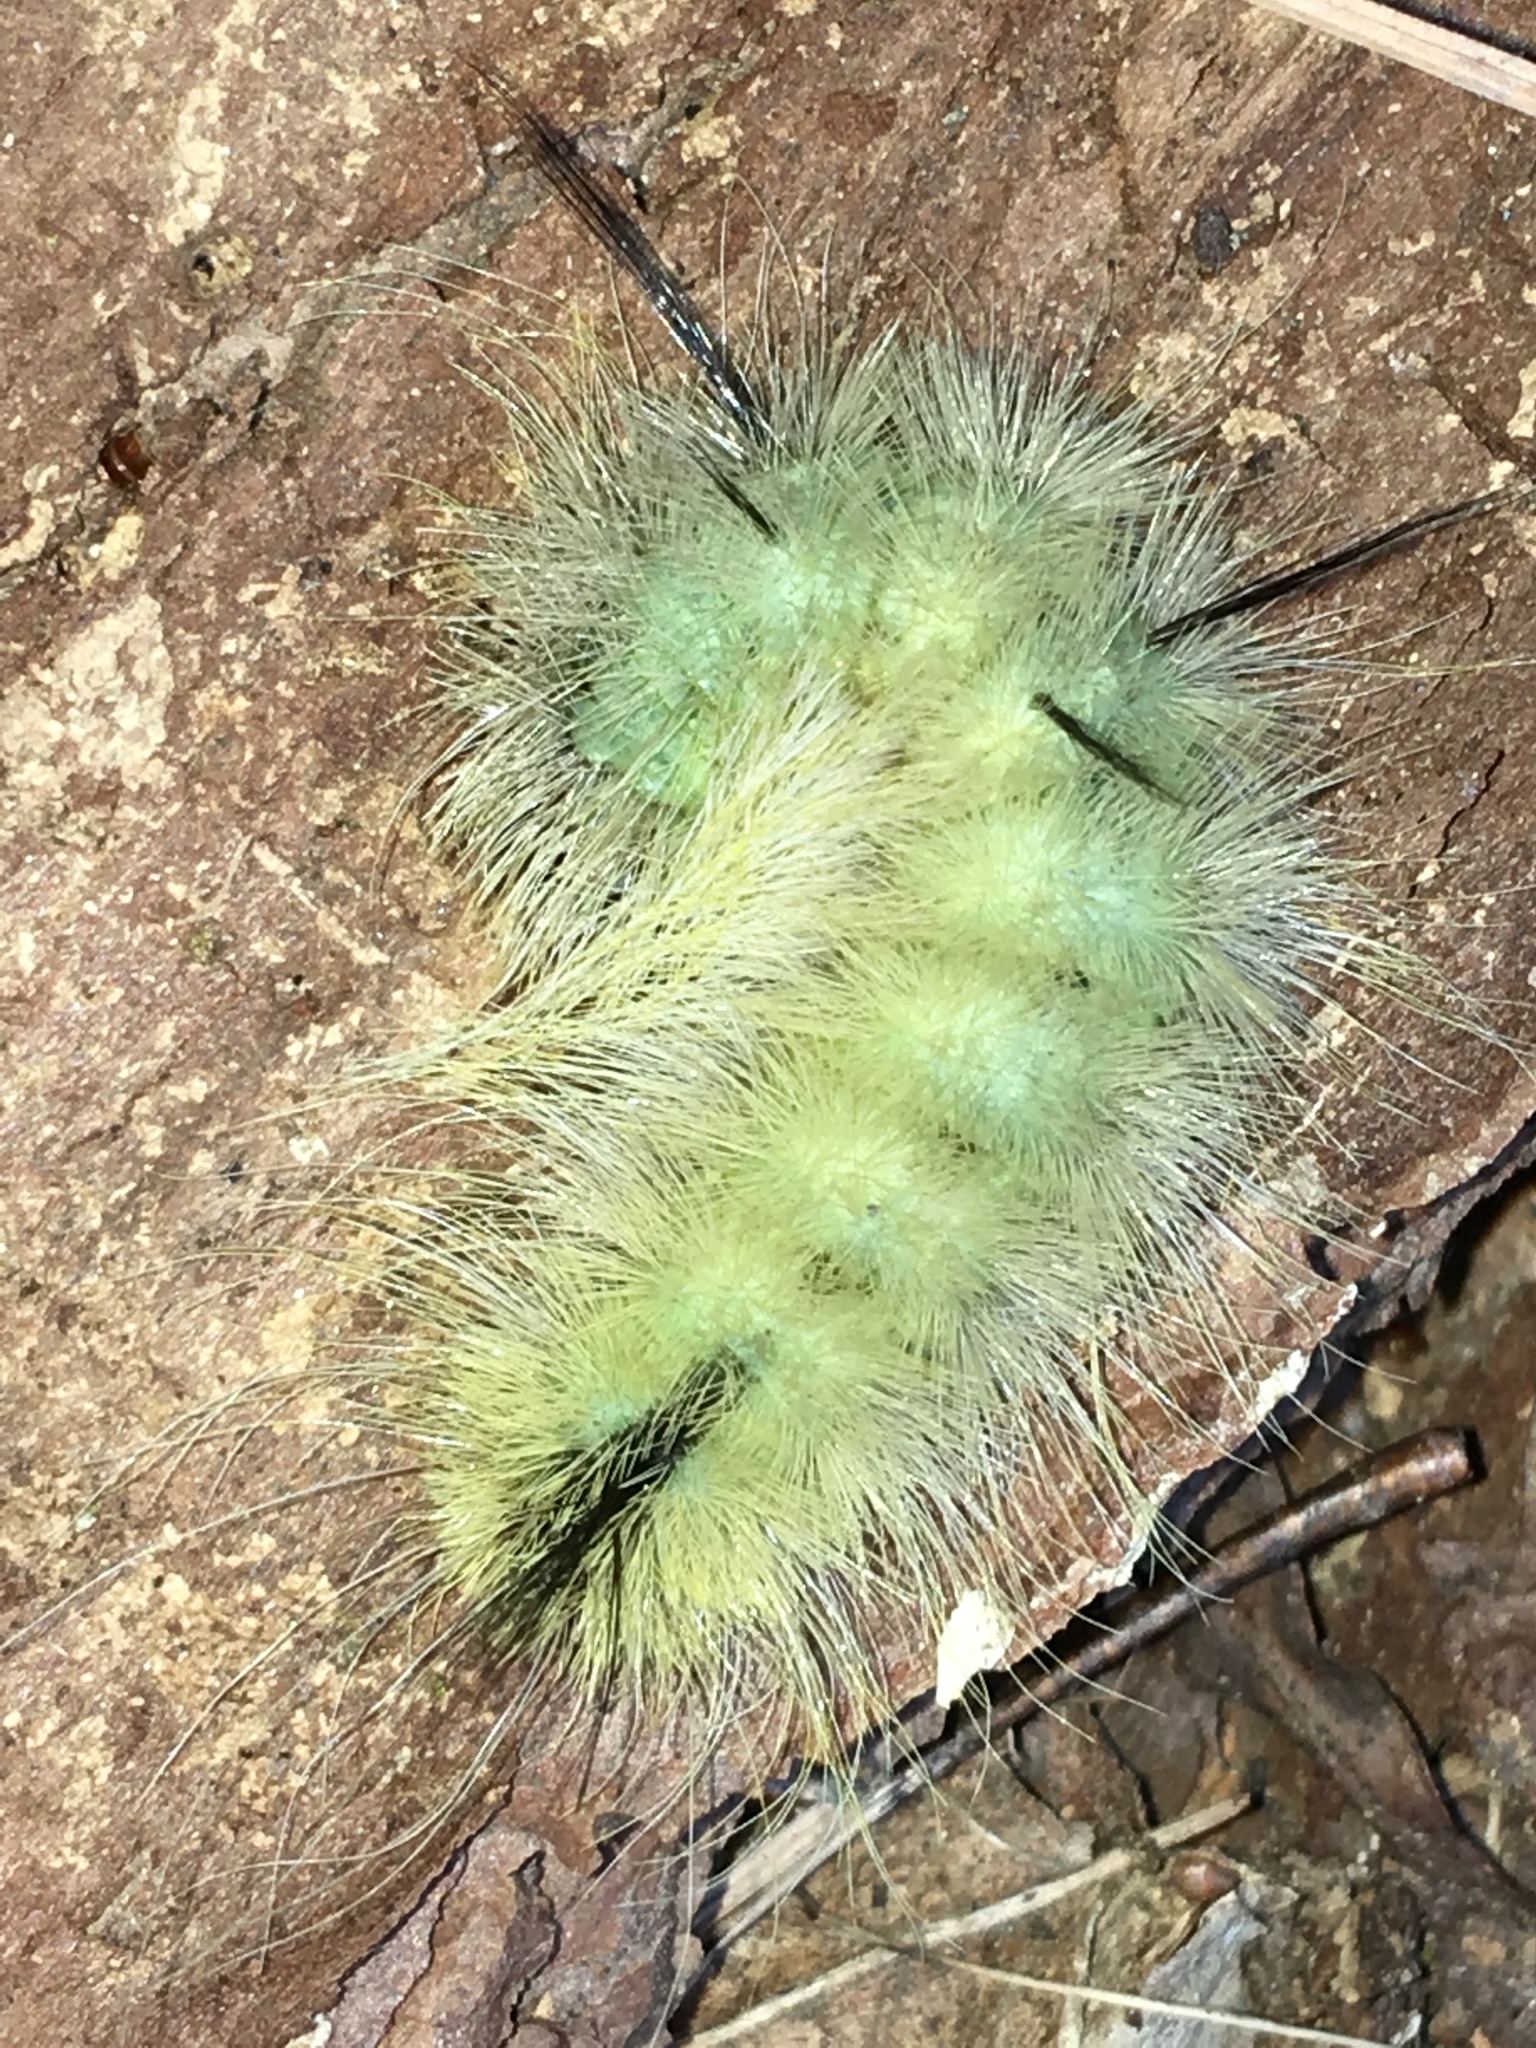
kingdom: Animalia
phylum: Arthropoda
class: Insecta
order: Lepidoptera
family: Noctuidae
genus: Acronicta
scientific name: Acronicta americana
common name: American dagger
